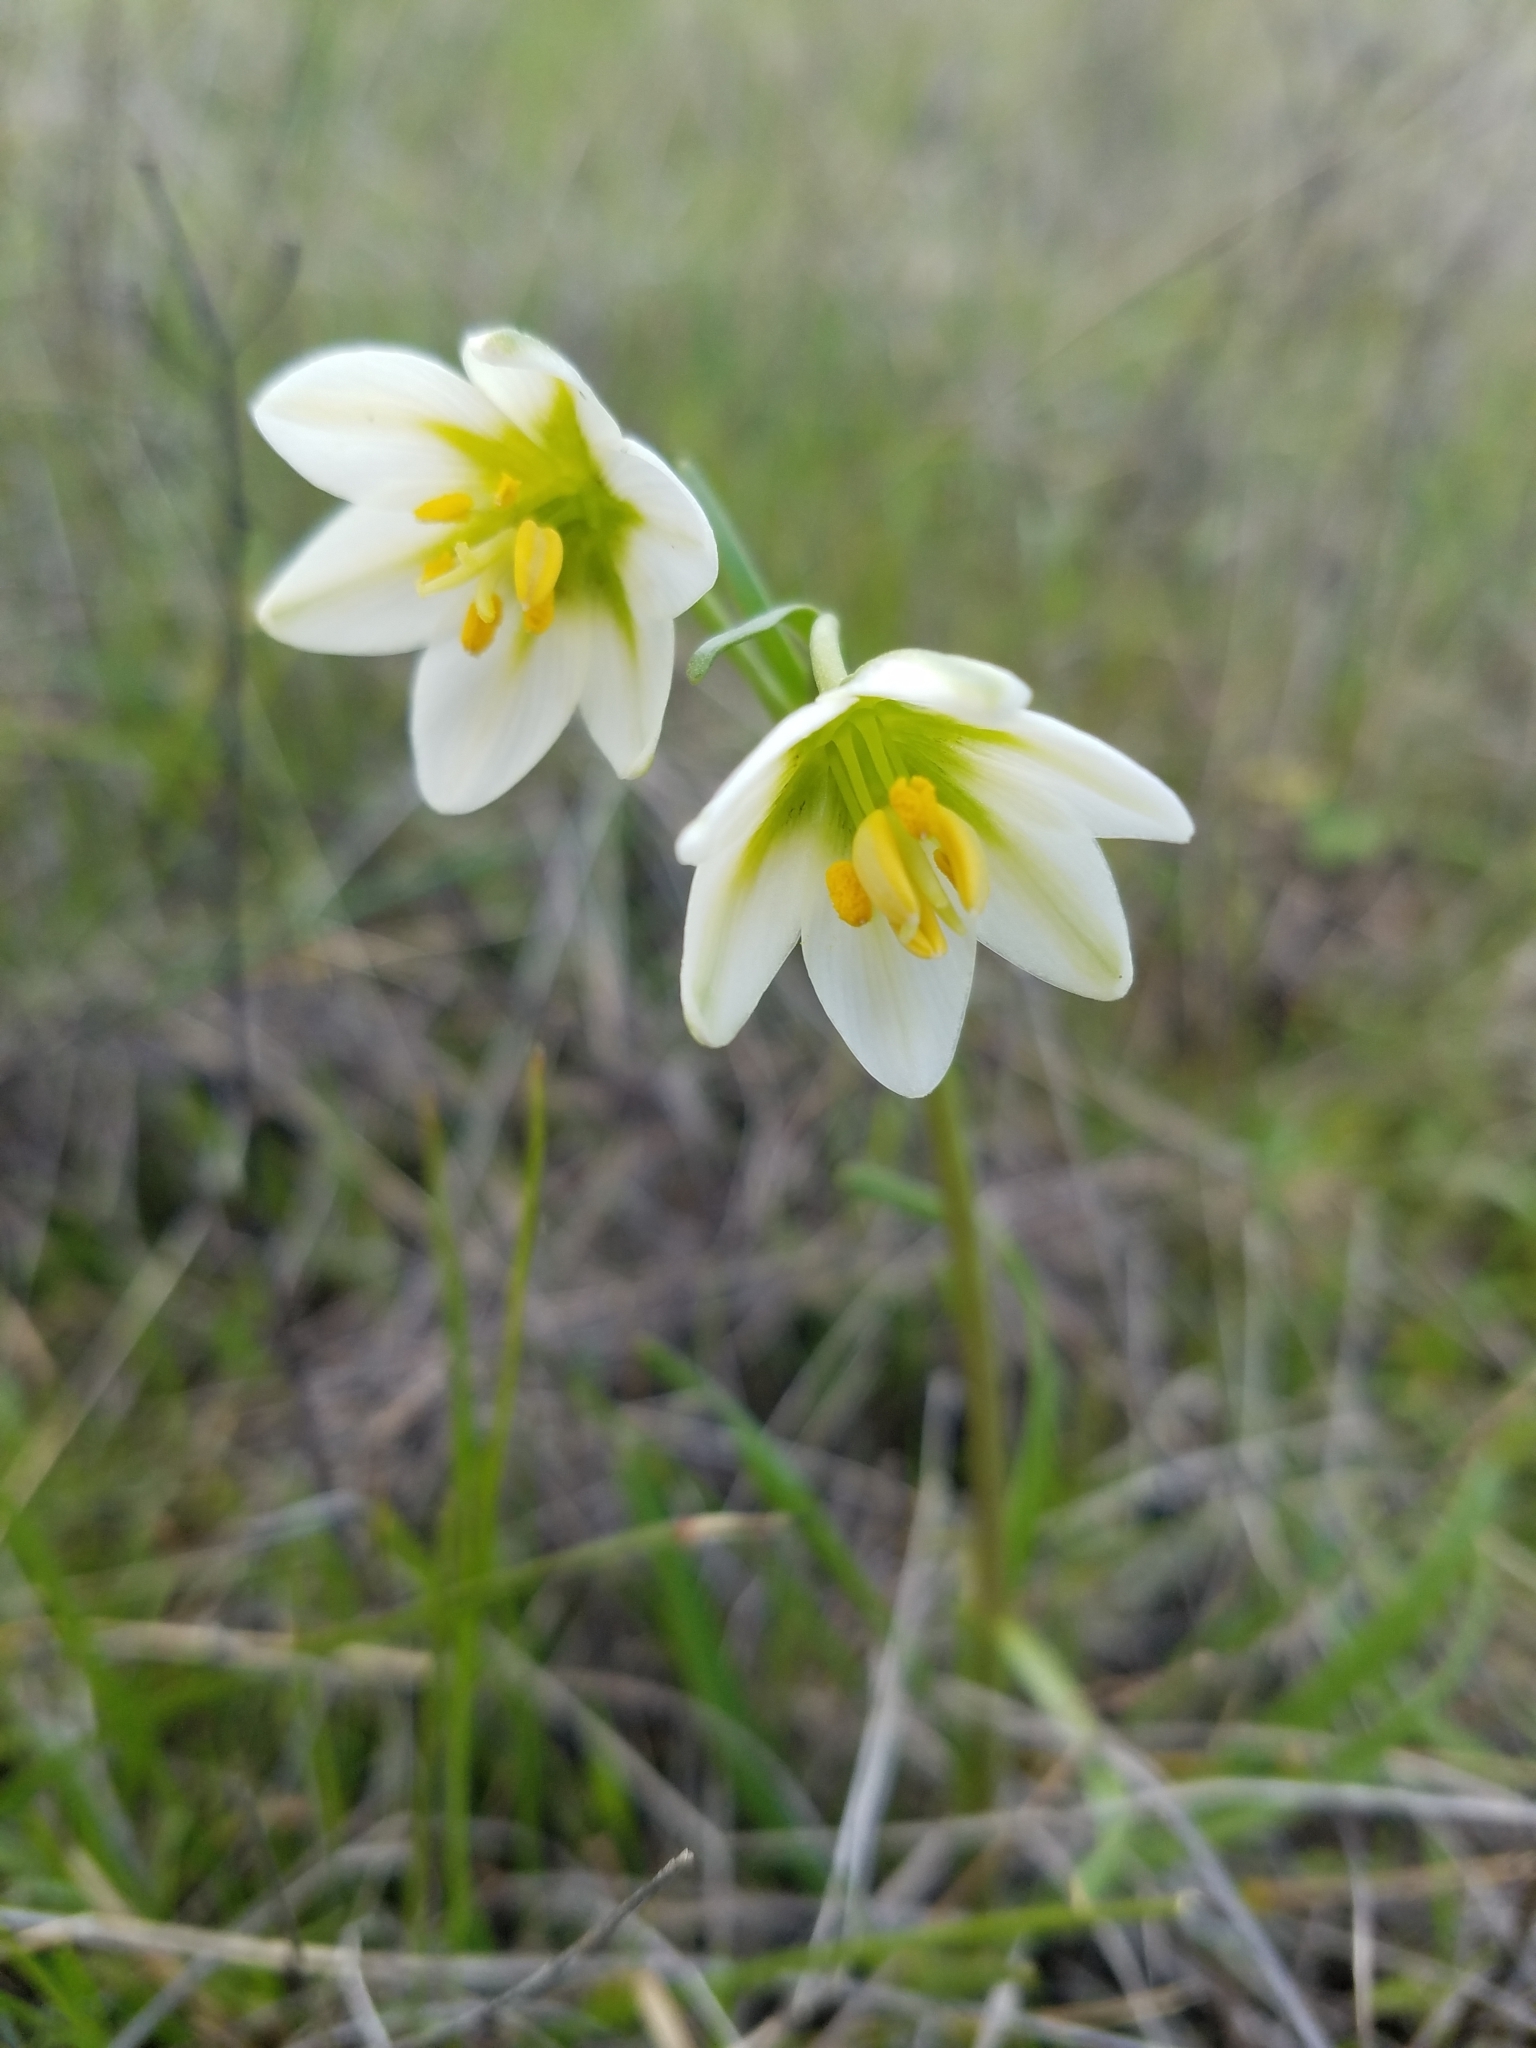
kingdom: Plantae
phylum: Tracheophyta
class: Liliopsida
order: Liliales
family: Liliaceae
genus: Fritillaria
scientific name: Fritillaria liliacea
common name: Fragrant fritillary
